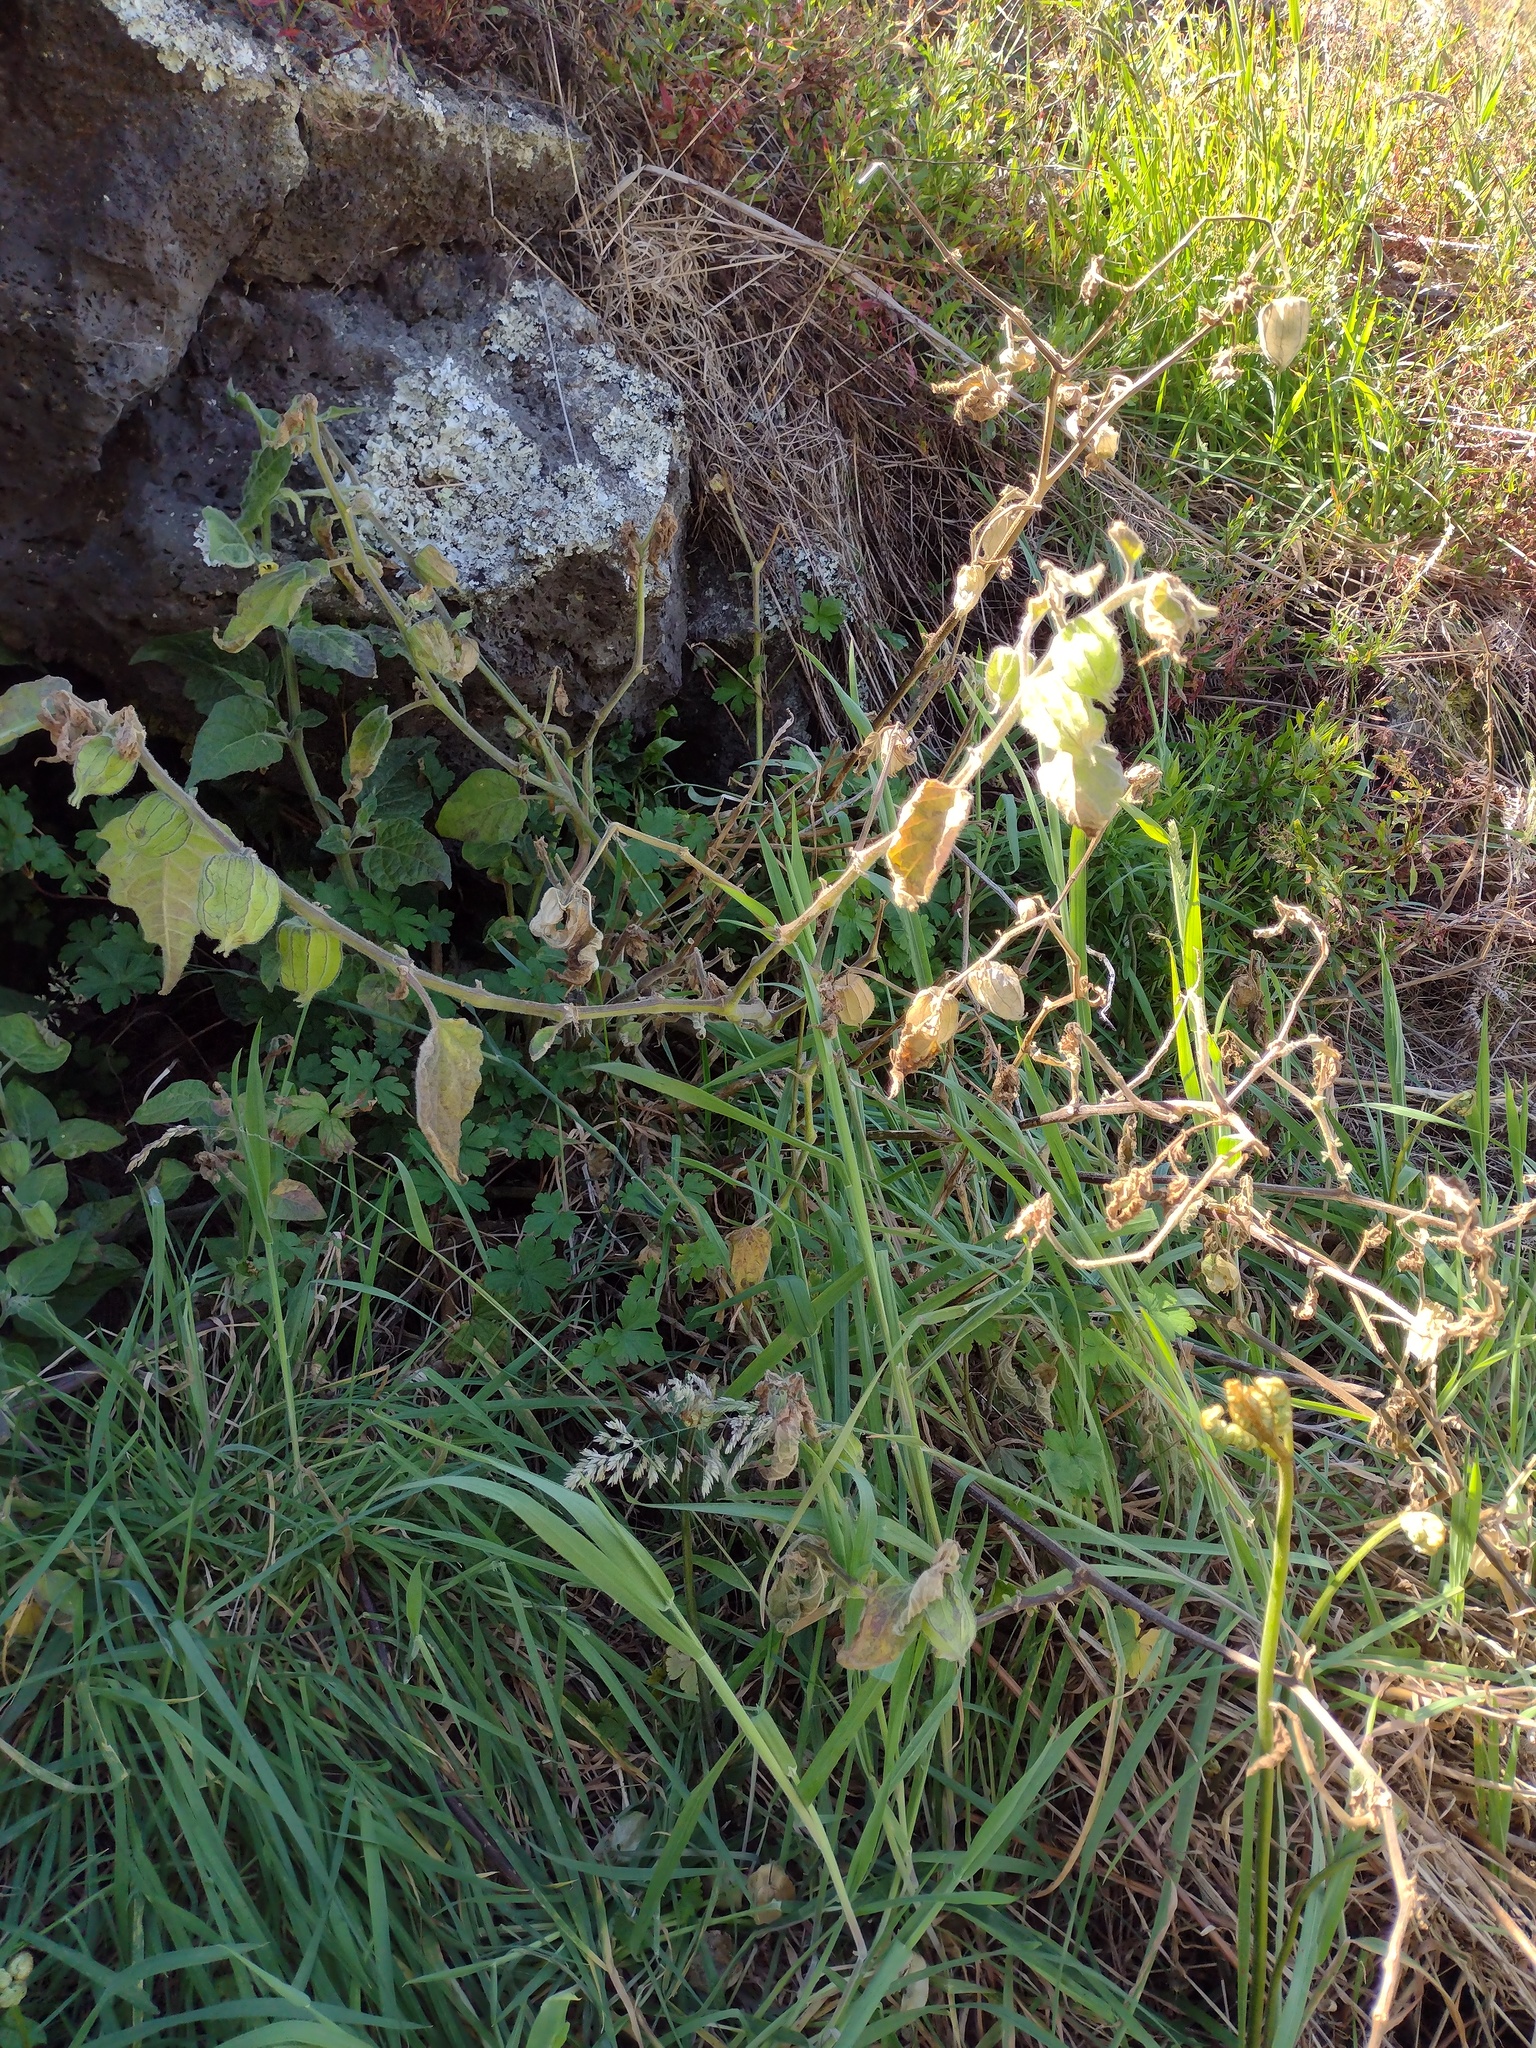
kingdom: Plantae
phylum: Tracheophyta
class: Magnoliopsida
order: Solanales
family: Solanaceae
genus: Physalis
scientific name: Physalis peruviana
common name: Cape-gooseberry
